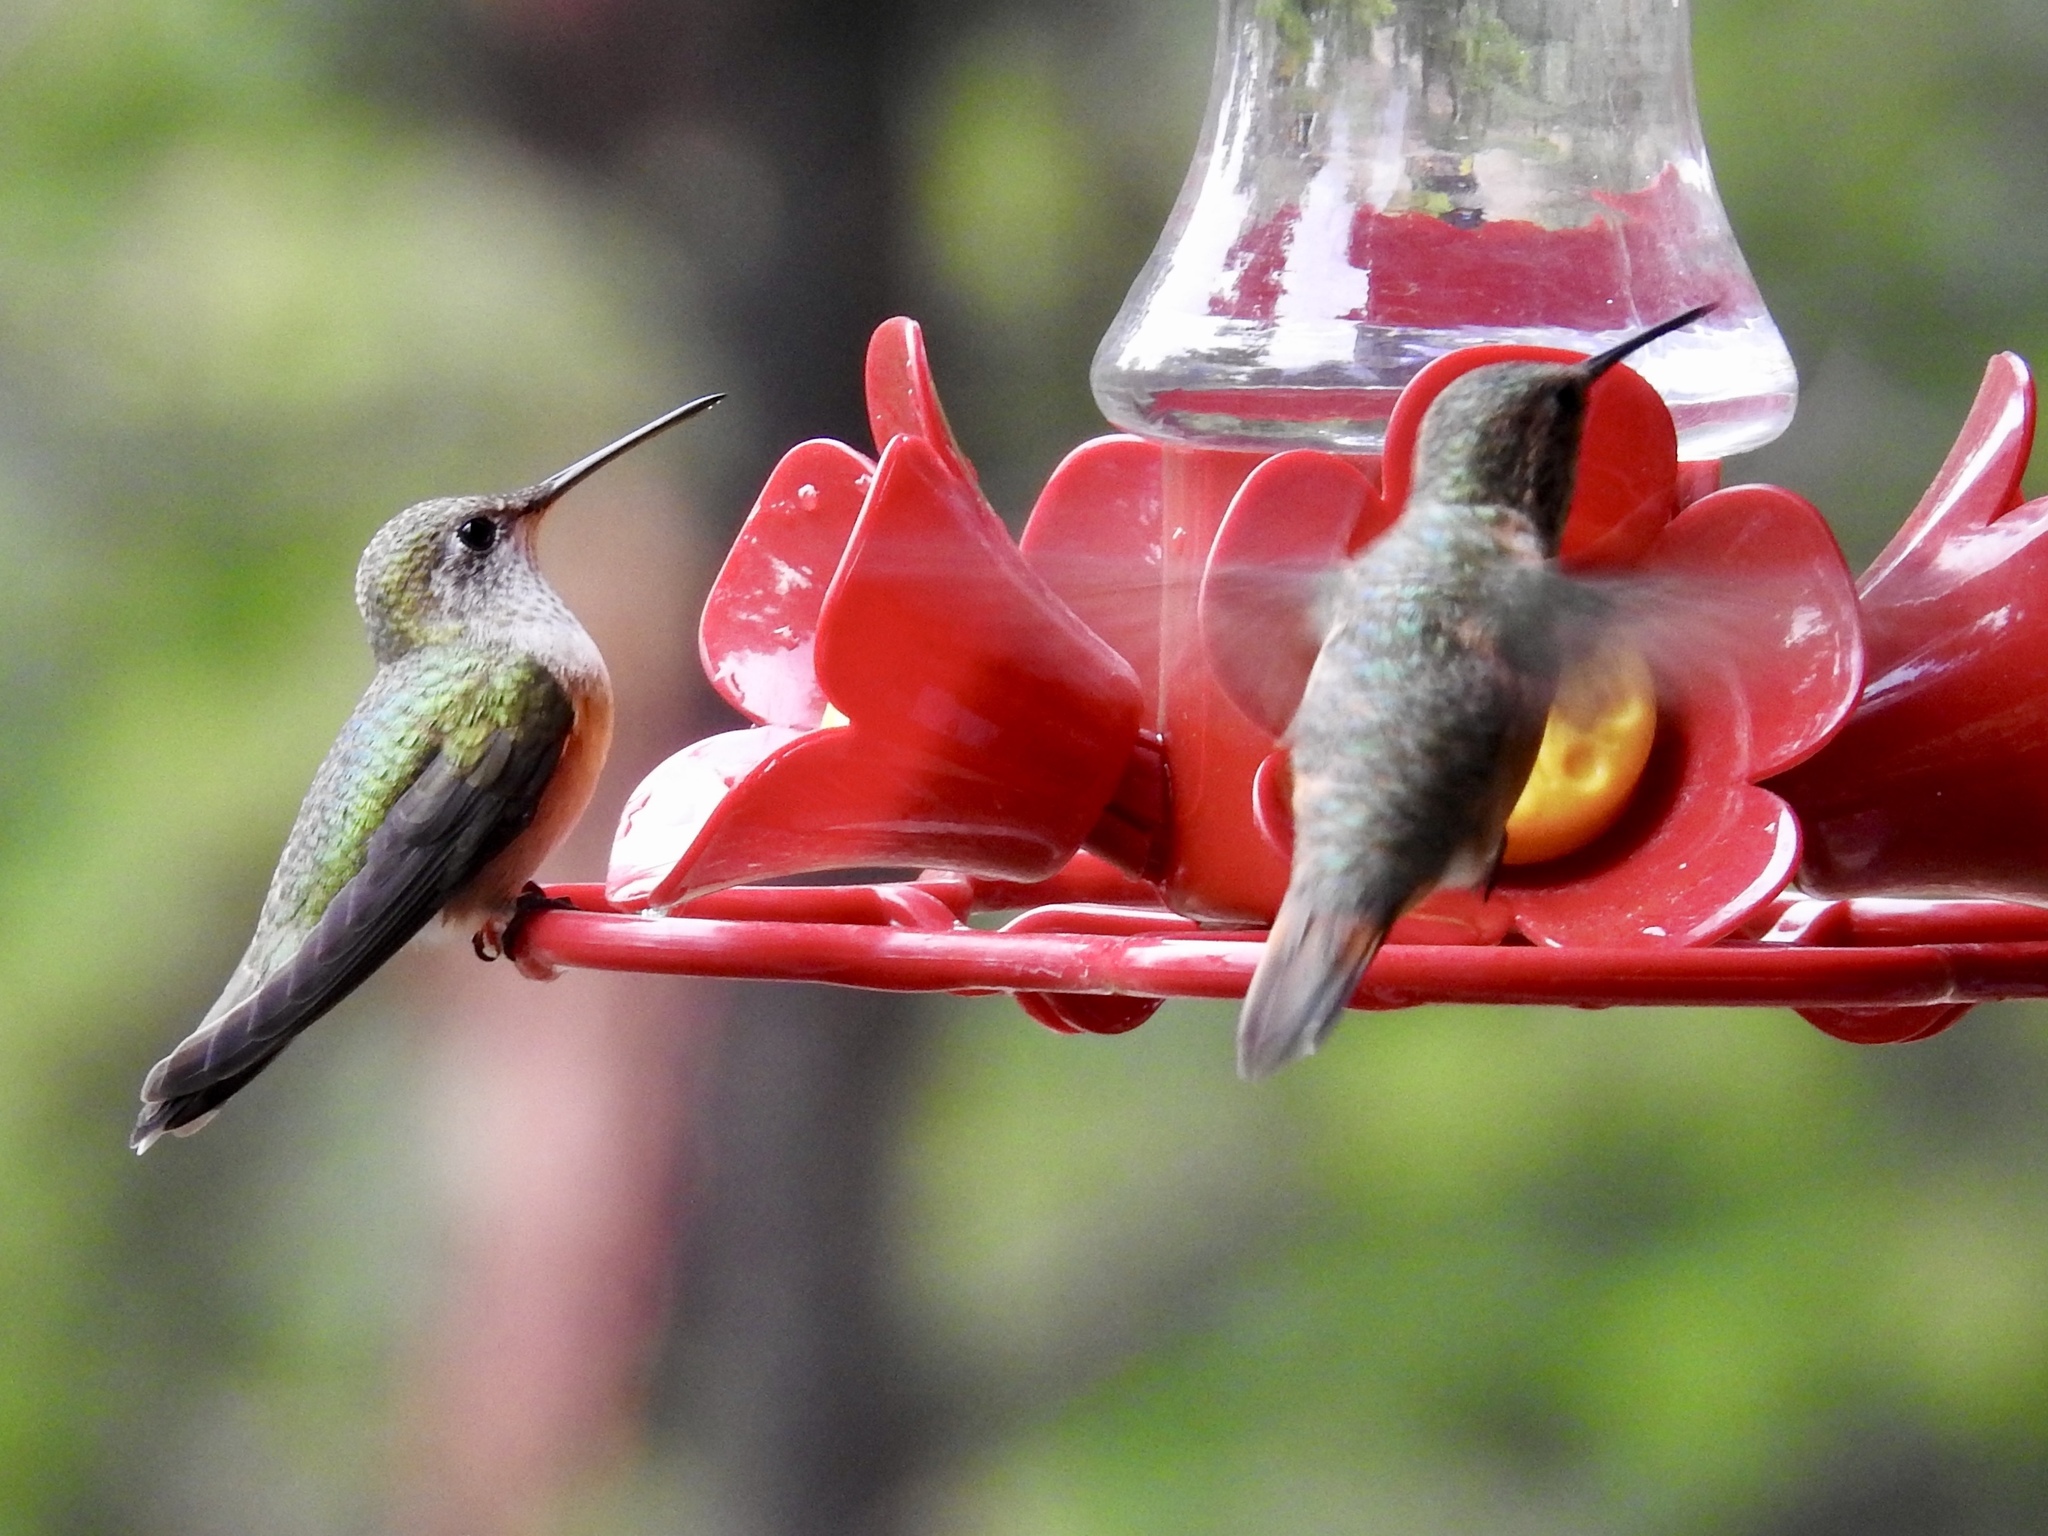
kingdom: Animalia
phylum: Chordata
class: Aves
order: Apodiformes
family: Trochilidae
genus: Selasphorus
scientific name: Selasphorus platycercus
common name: Broad-tailed hummingbird
